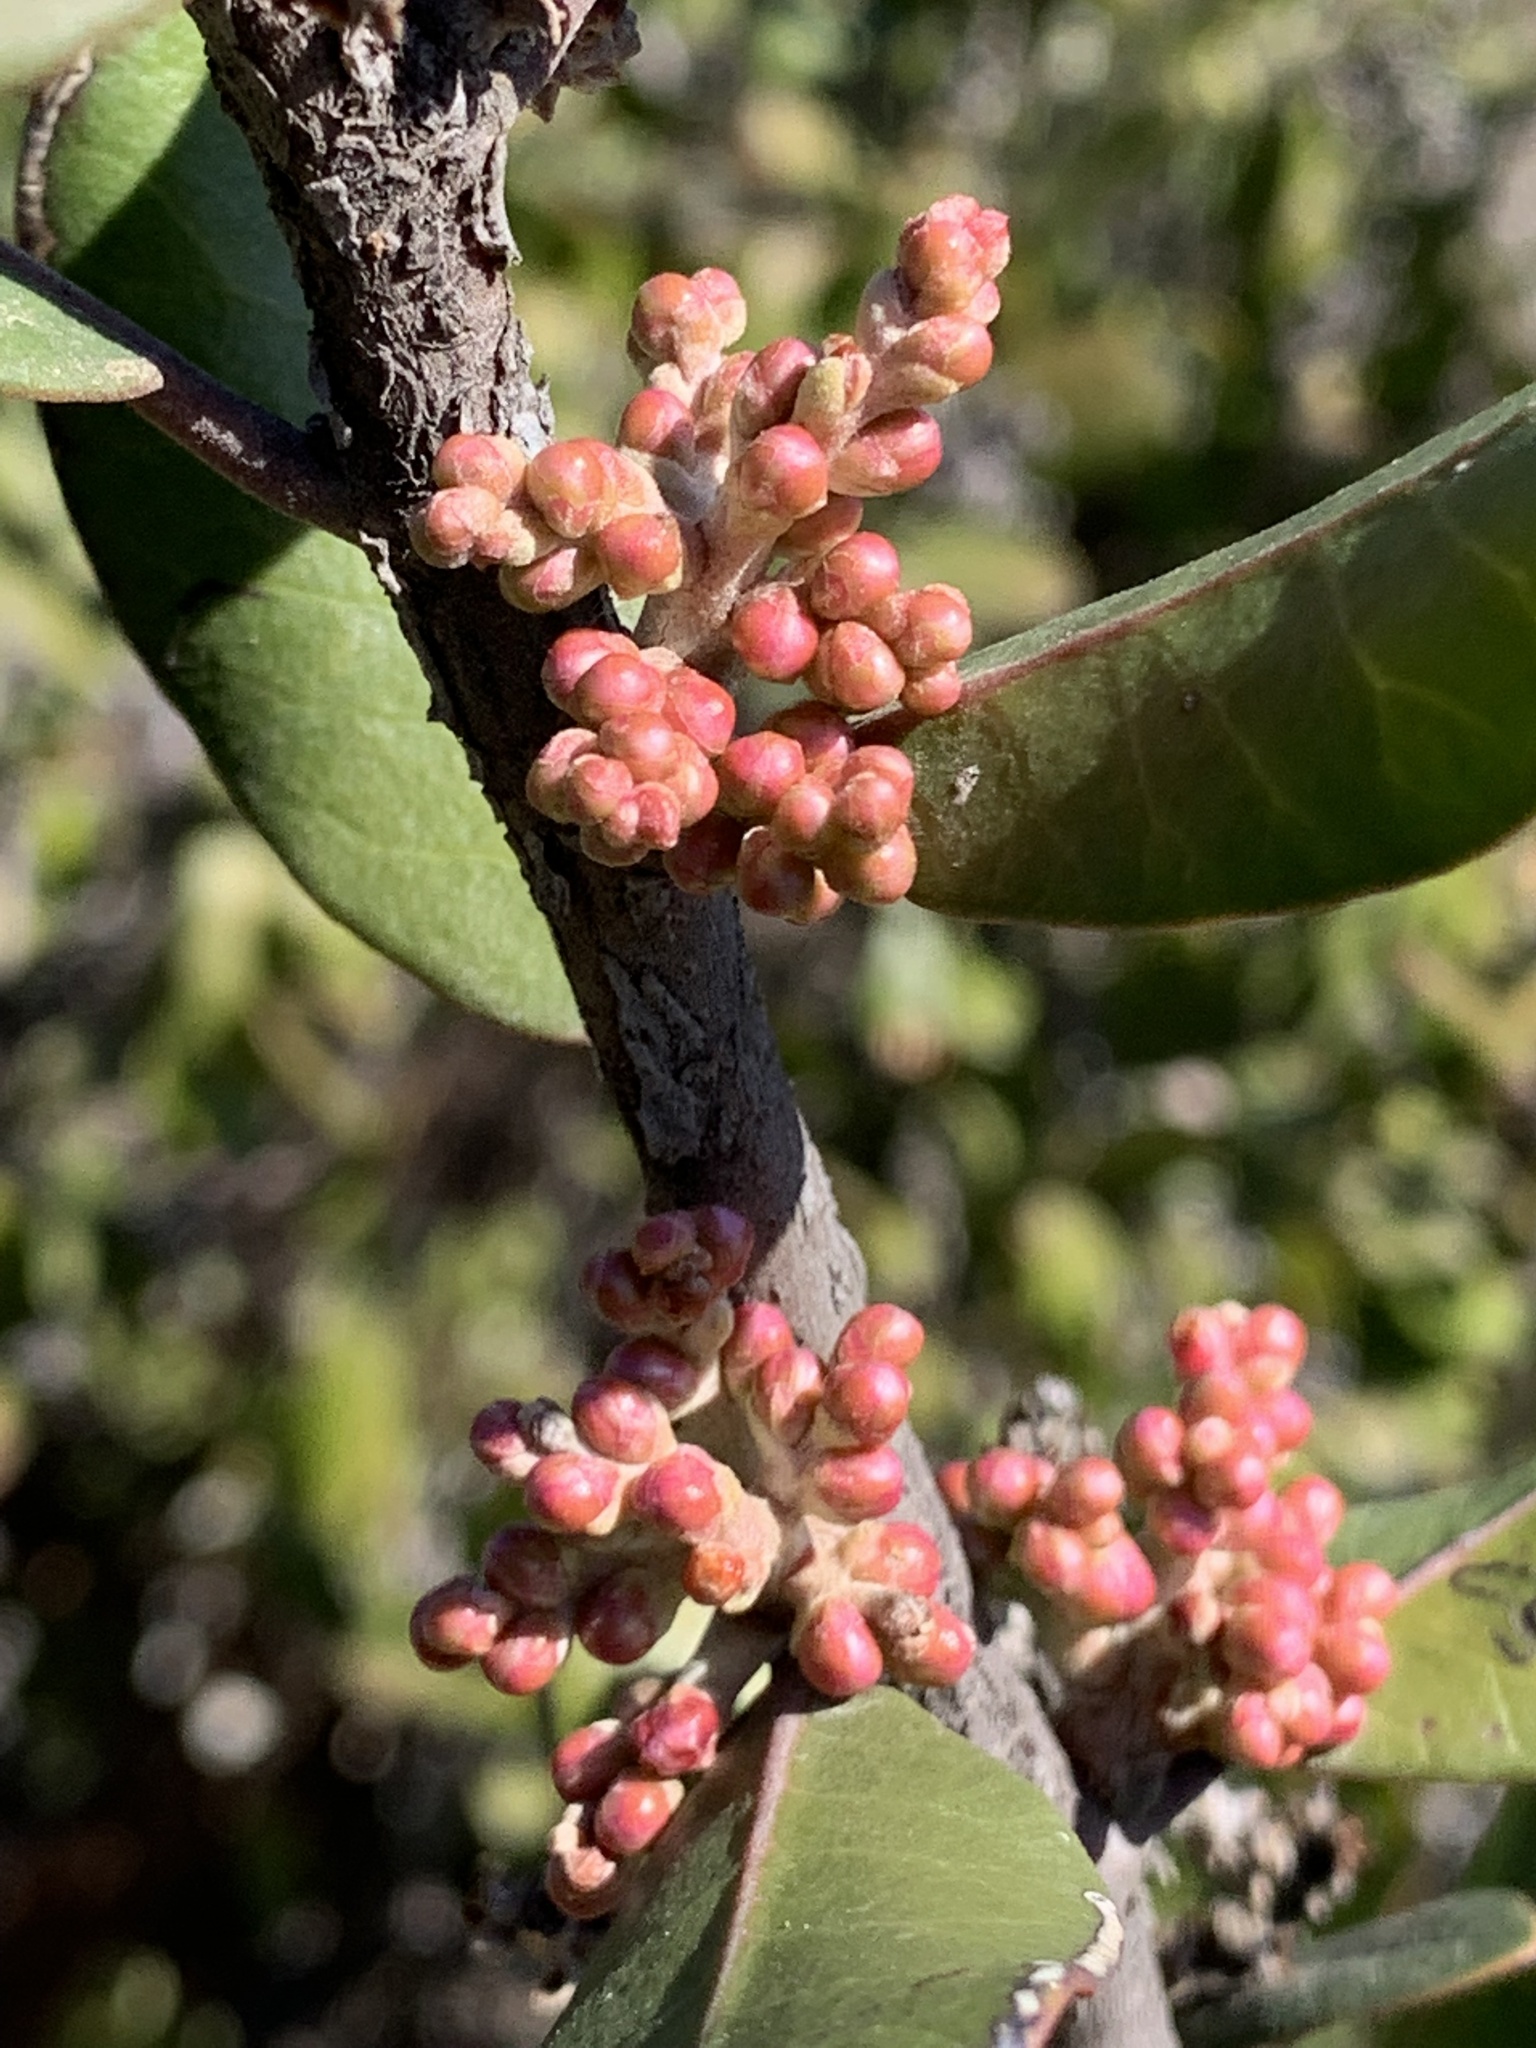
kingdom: Plantae
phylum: Tracheophyta
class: Magnoliopsida
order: Sapindales
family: Anacardiaceae
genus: Rhus
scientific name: Rhus integrifolia
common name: Lemonade sumac
